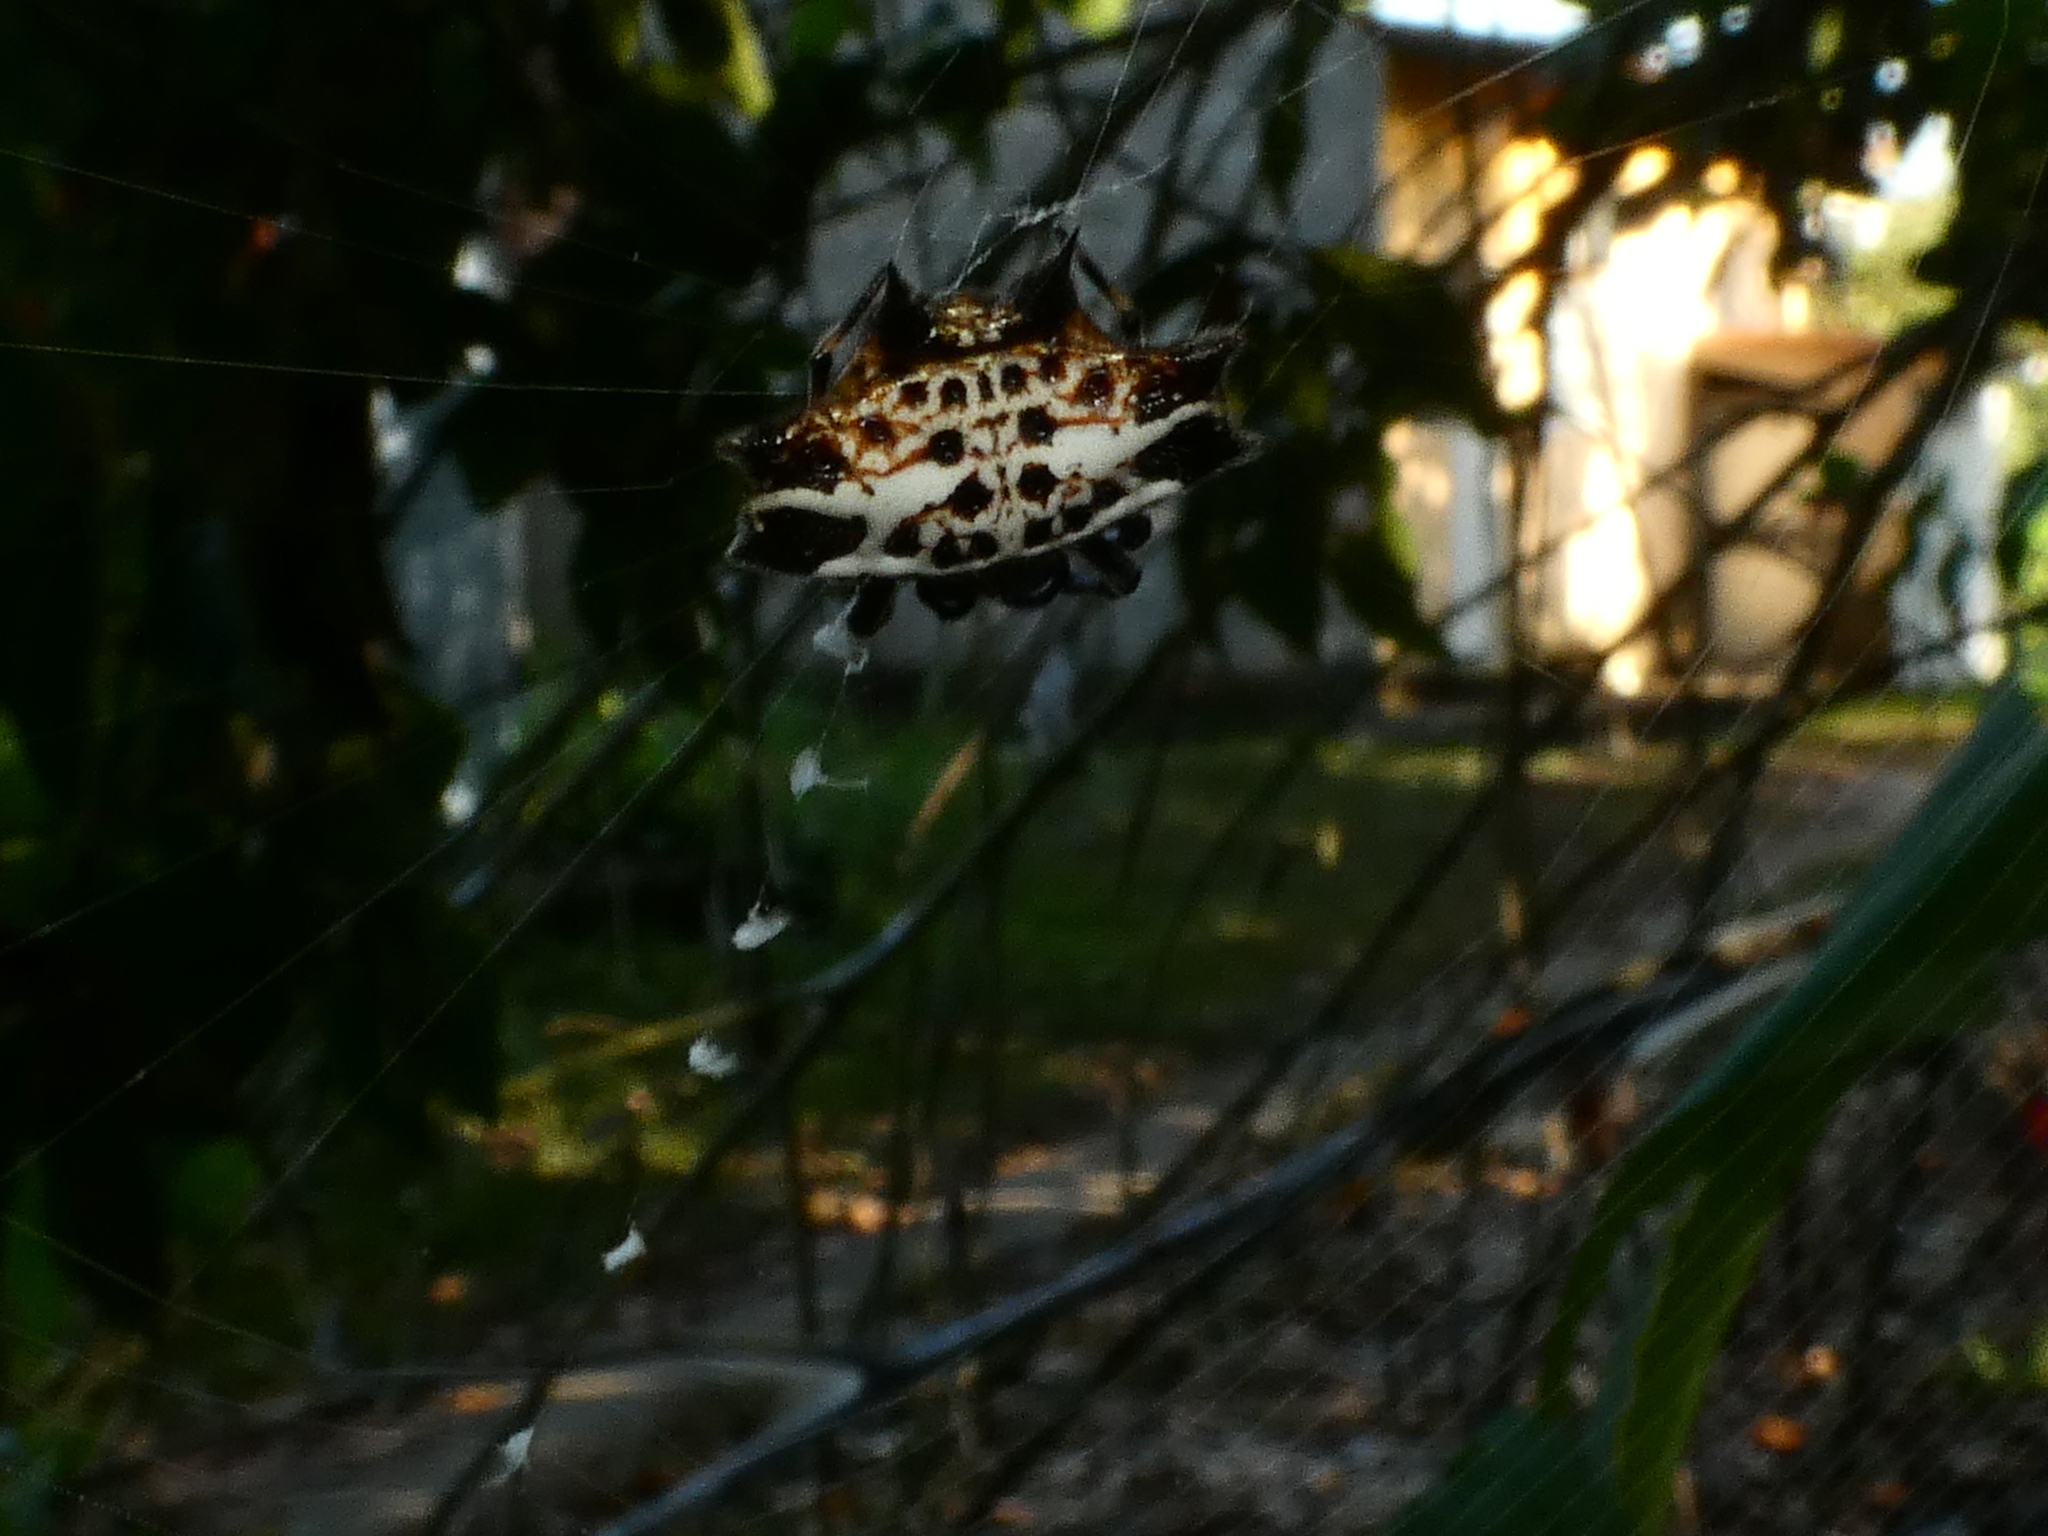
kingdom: Animalia
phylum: Arthropoda
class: Arachnida
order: Araneae
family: Araneidae
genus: Gasteracantha
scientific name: Gasteracantha cancriformis
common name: Orb weavers
